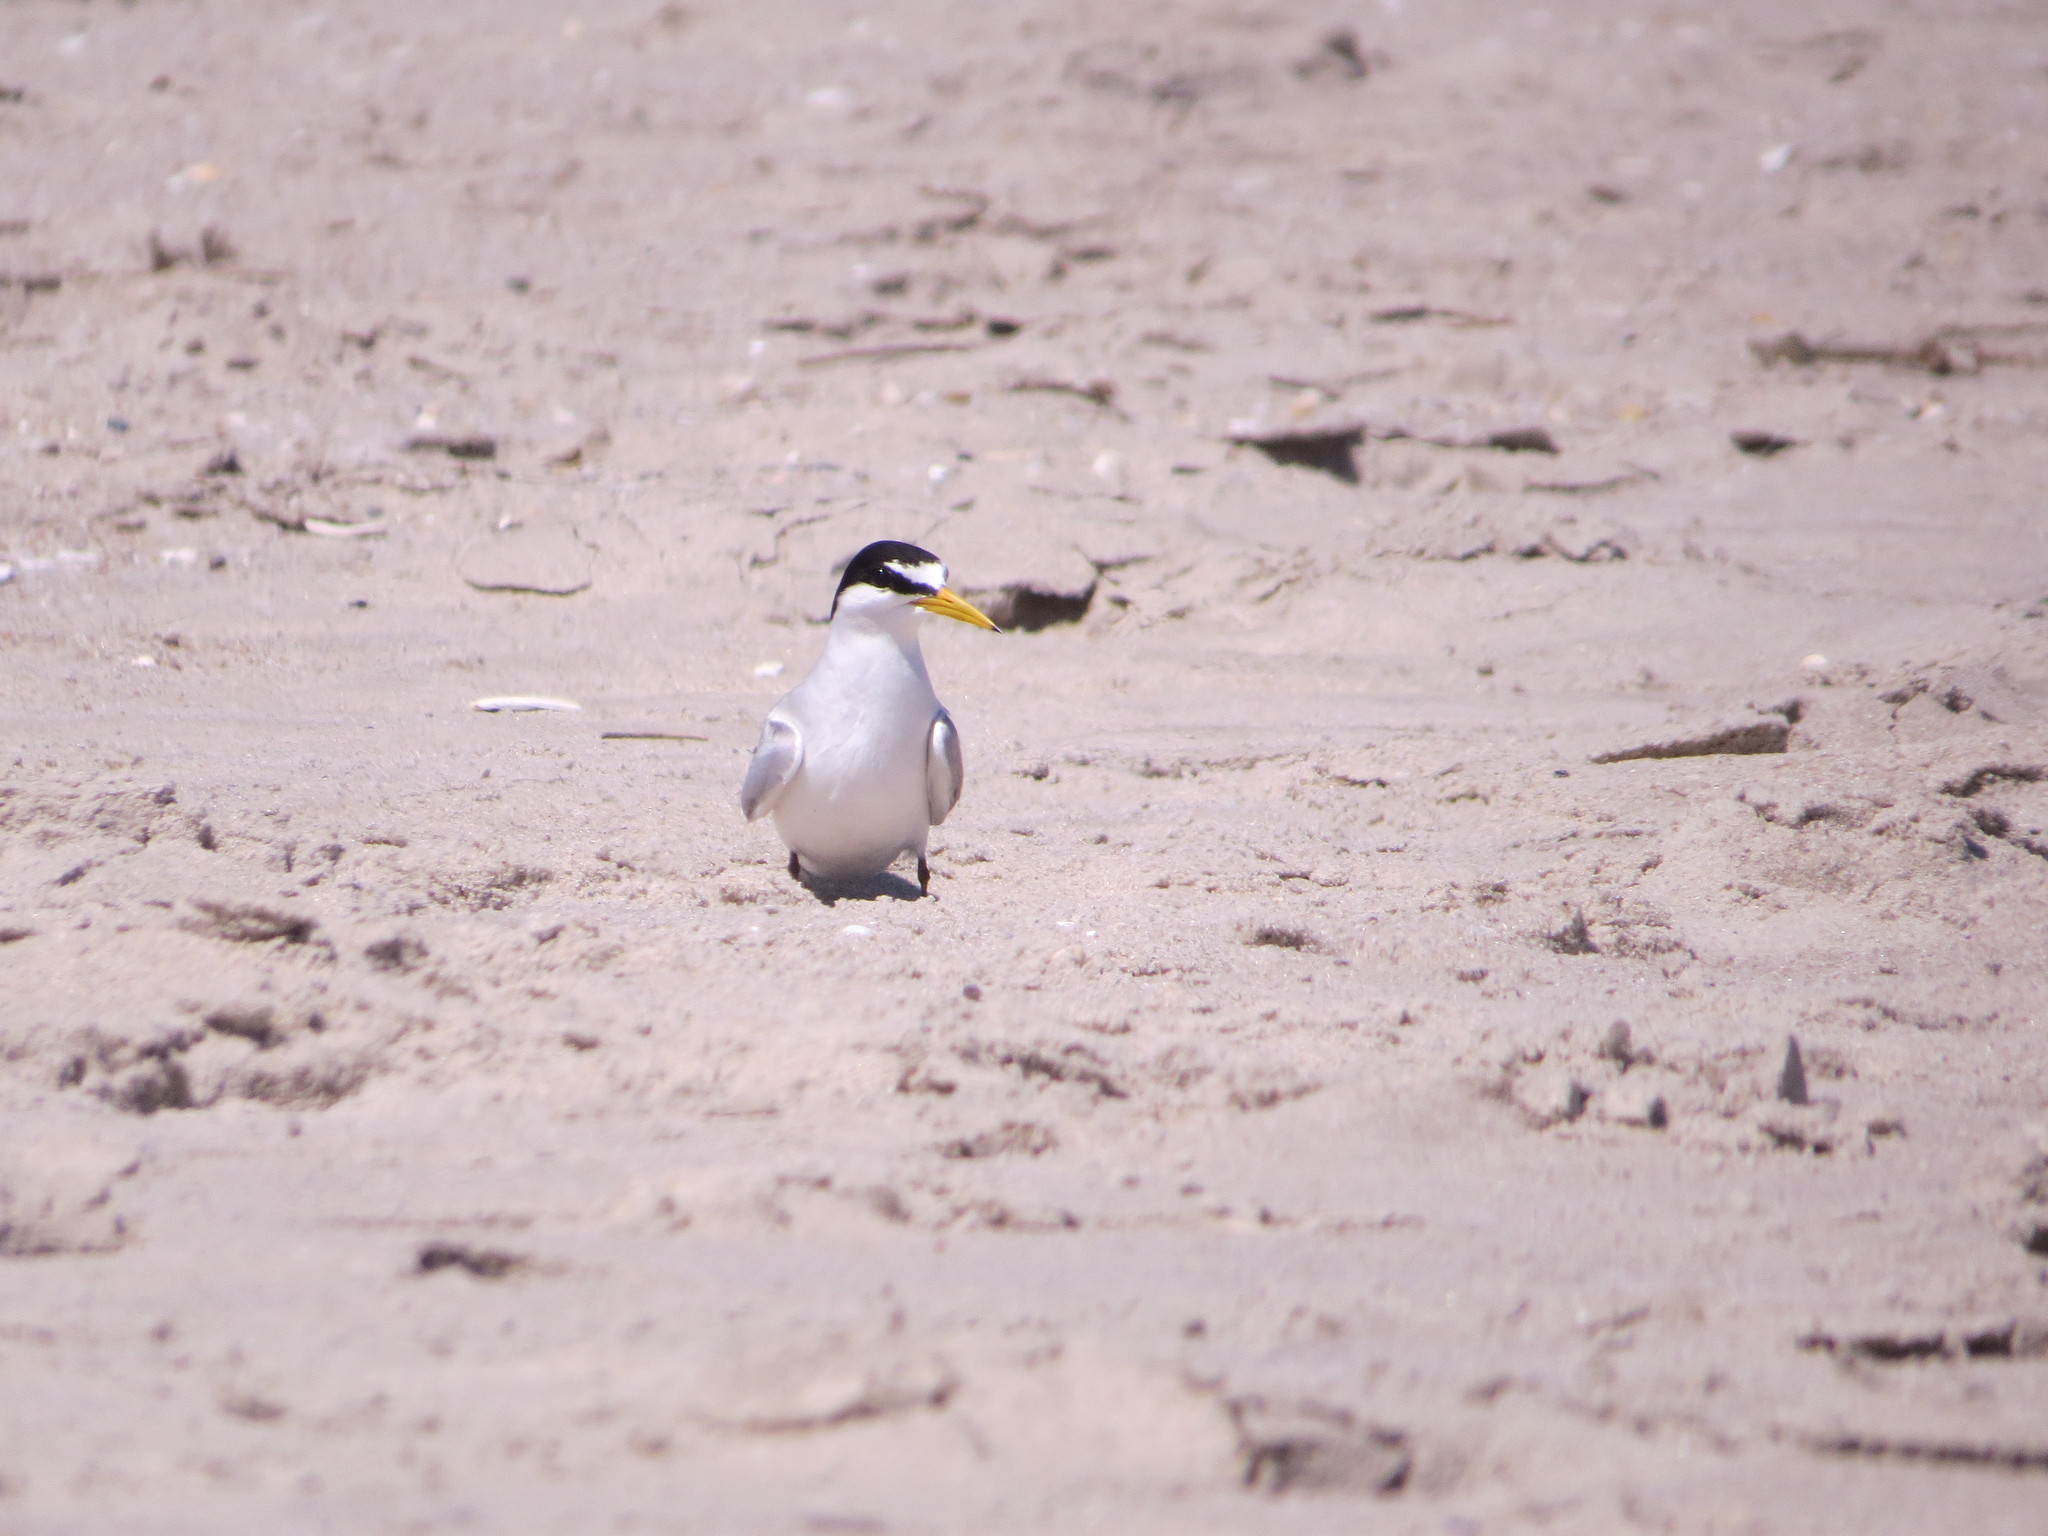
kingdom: Animalia
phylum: Chordata
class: Aves
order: Charadriiformes
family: Laridae
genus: Sternula
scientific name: Sternula antillarum
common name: Least tern
